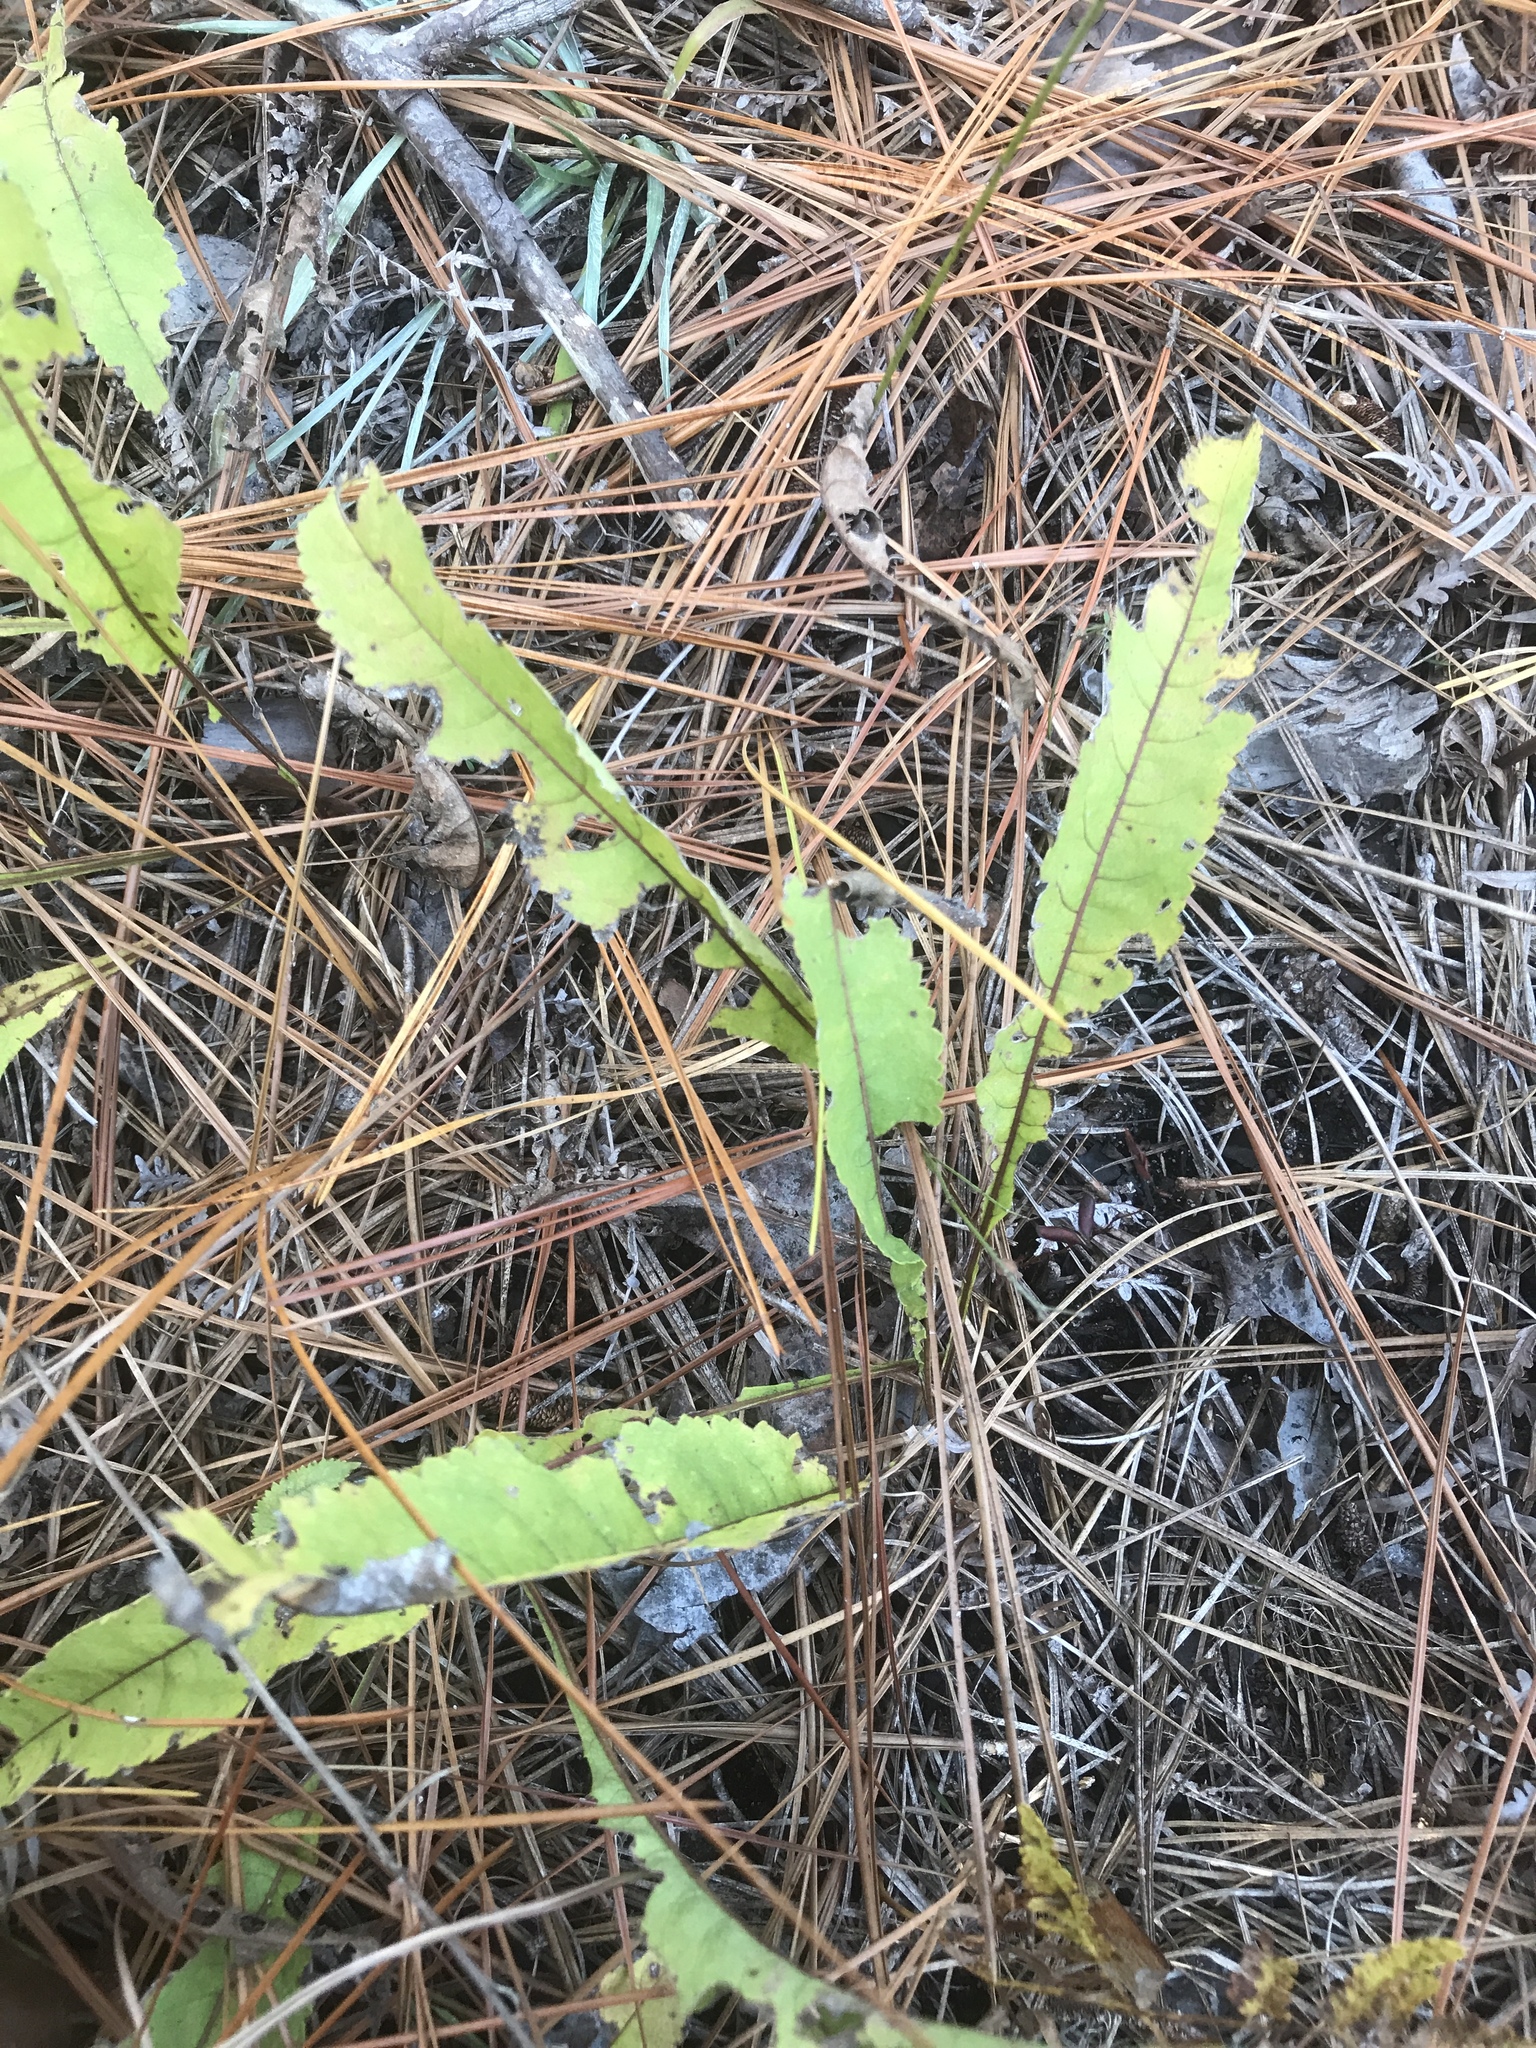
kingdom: Plantae
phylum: Tracheophyta
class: Magnoliopsida
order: Asterales
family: Asteraceae
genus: Parthenium
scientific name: Parthenium integrifolium
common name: American feverfew
